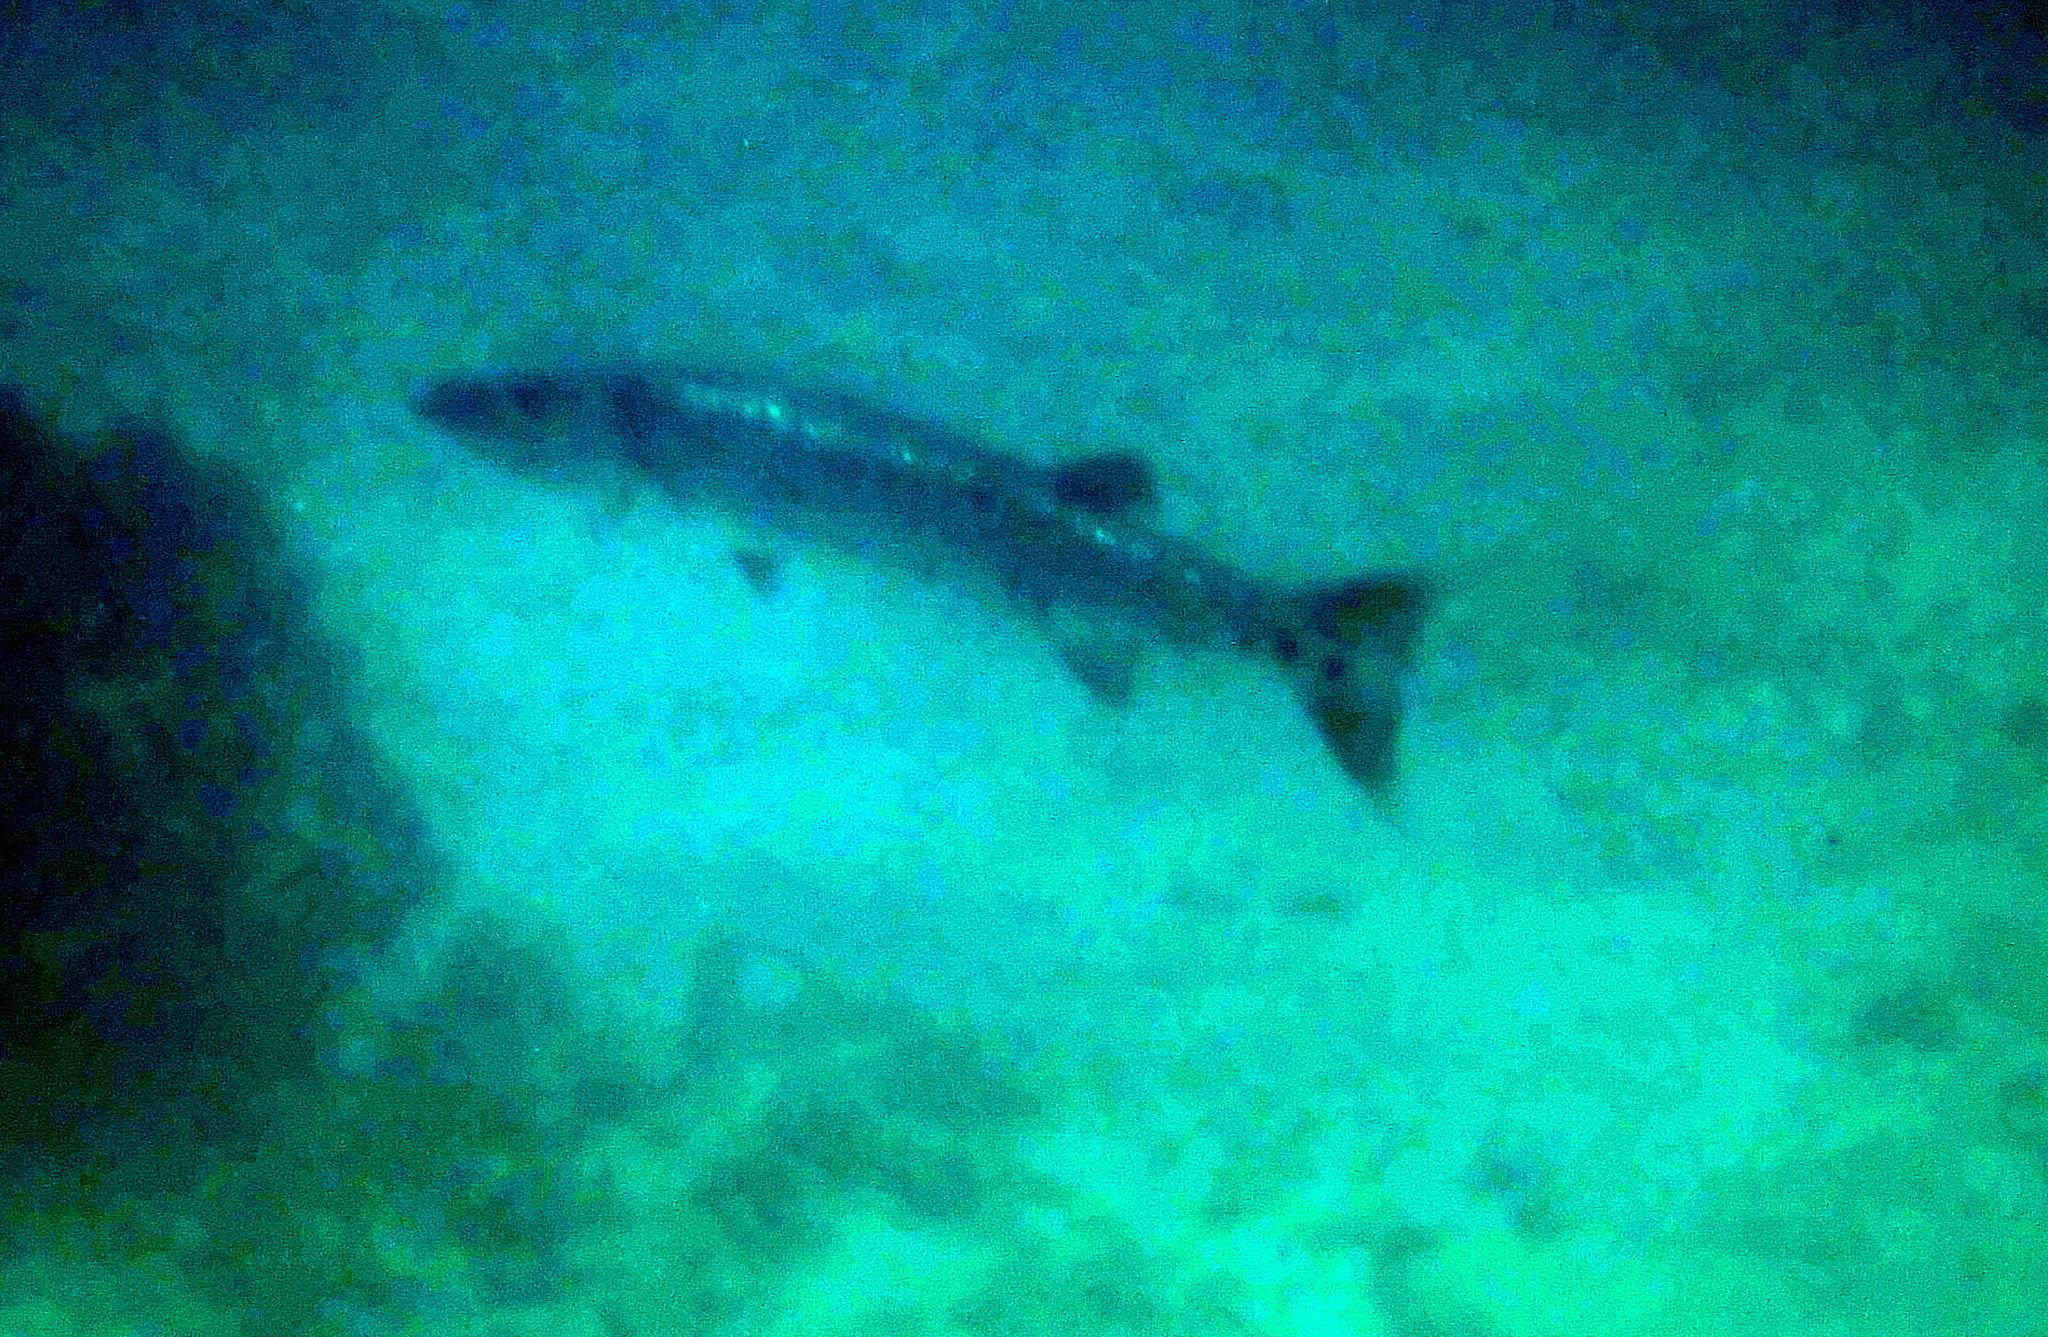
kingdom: Animalia
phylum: Chordata
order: Perciformes
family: Sphyraenidae
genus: Sphyraena
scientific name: Sphyraena barracuda
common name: Great barracuda
